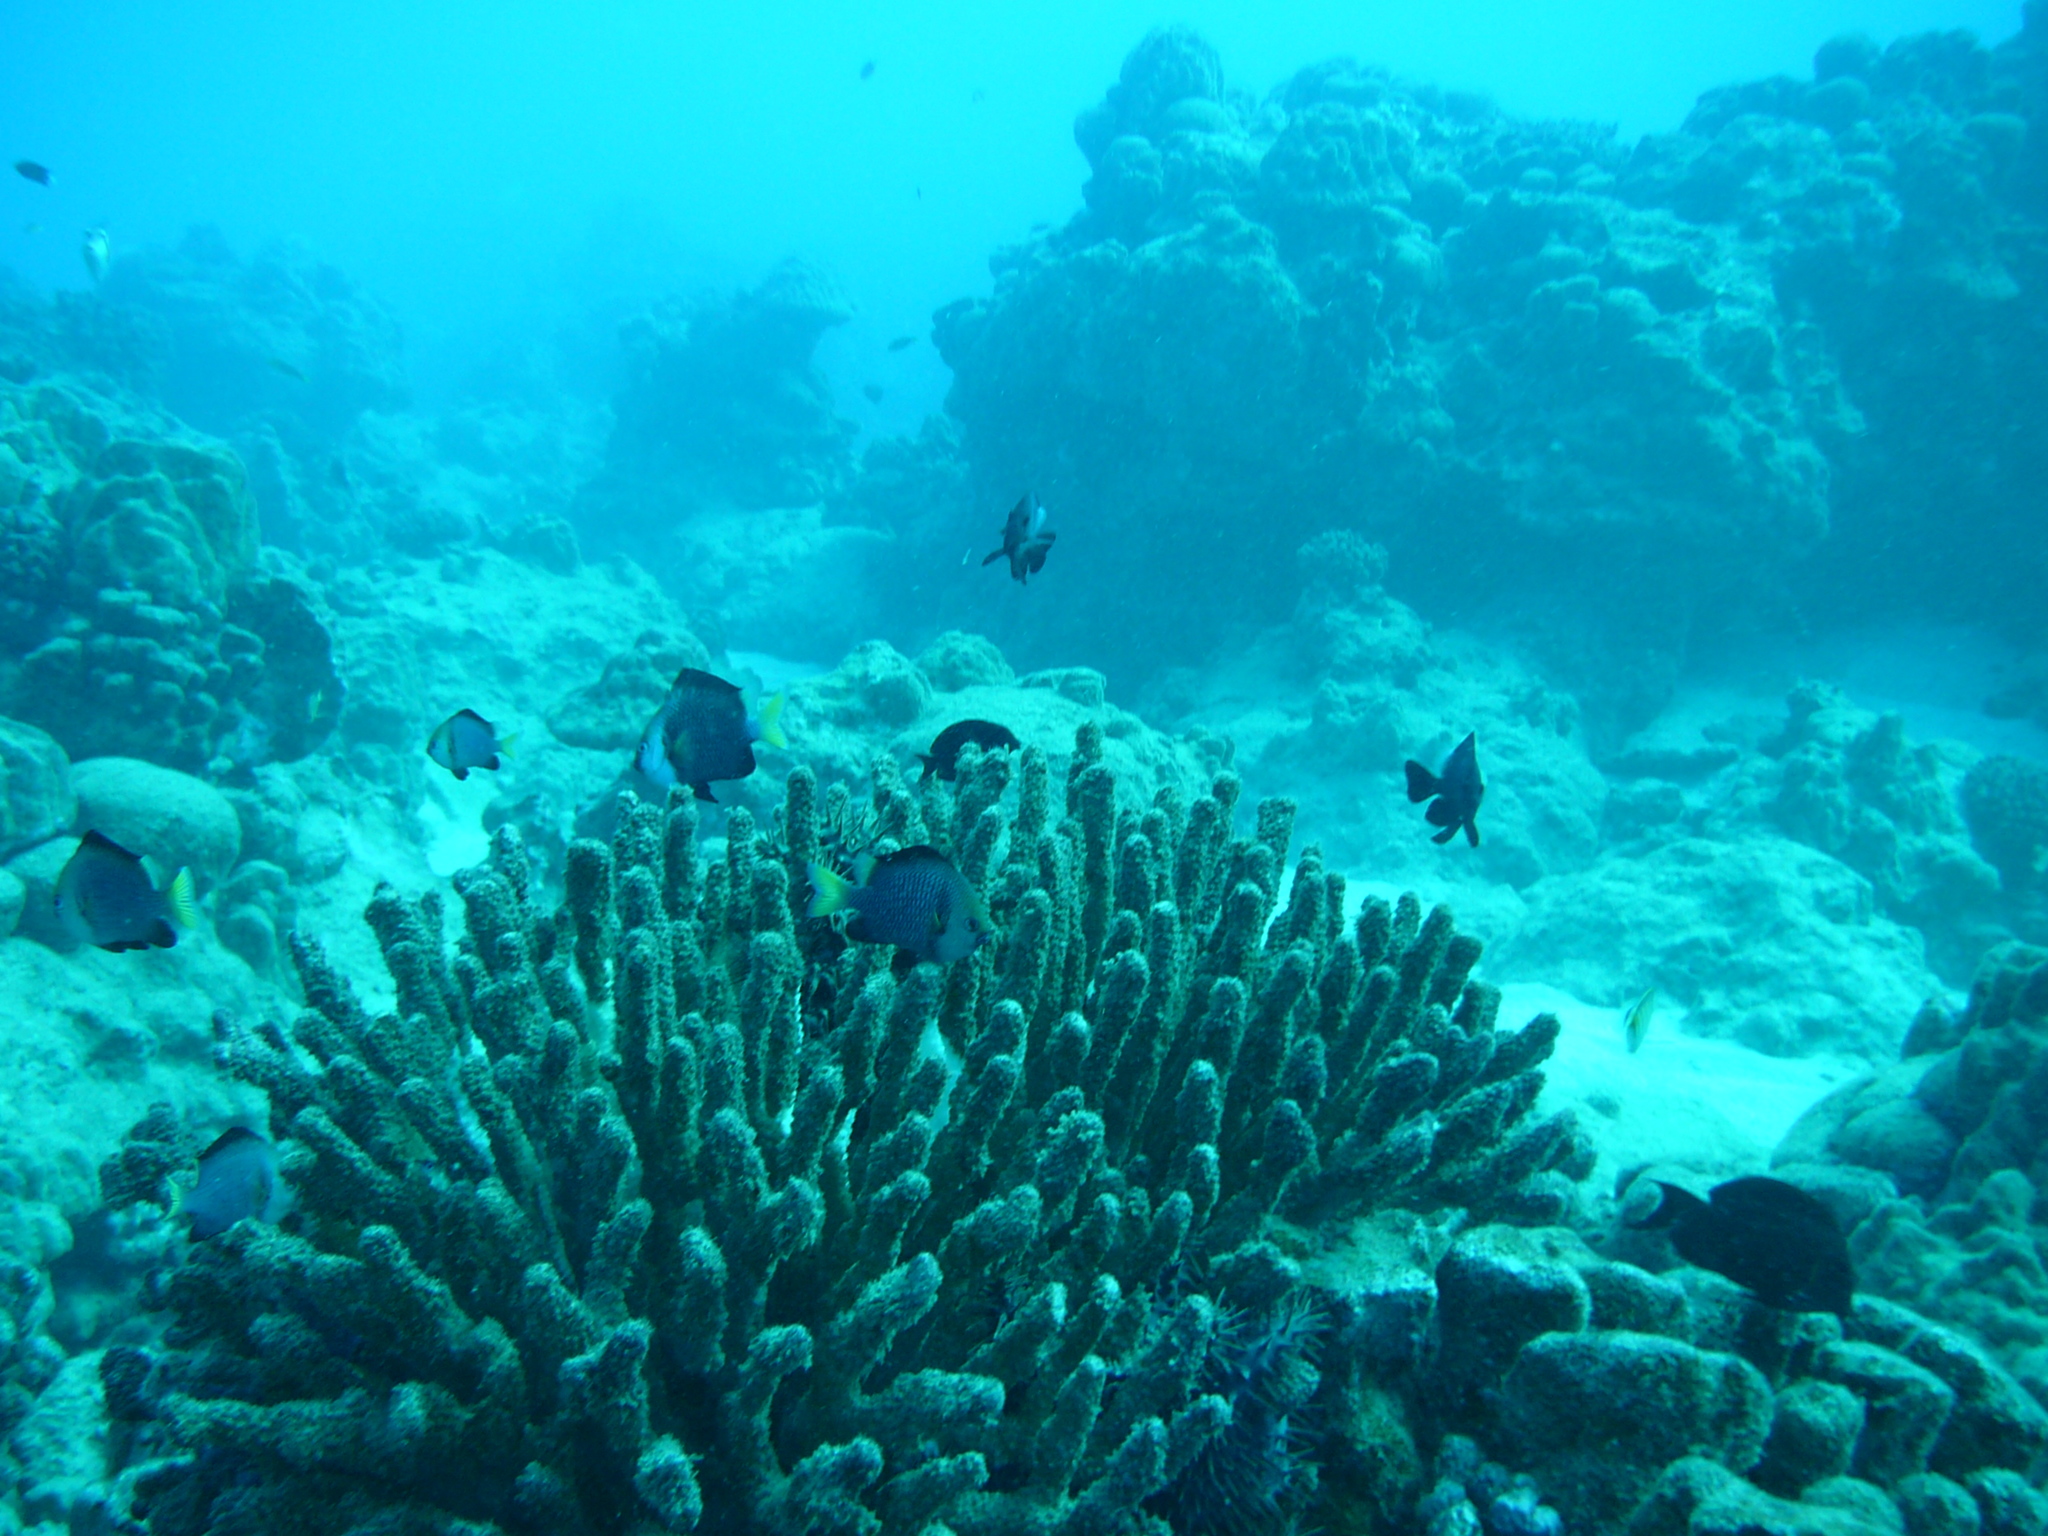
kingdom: Animalia
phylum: Chordata
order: Perciformes
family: Pomacentridae
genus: Dascyllus
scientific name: Dascyllus flavicaudus
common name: Yellow-tailed dascyllus
